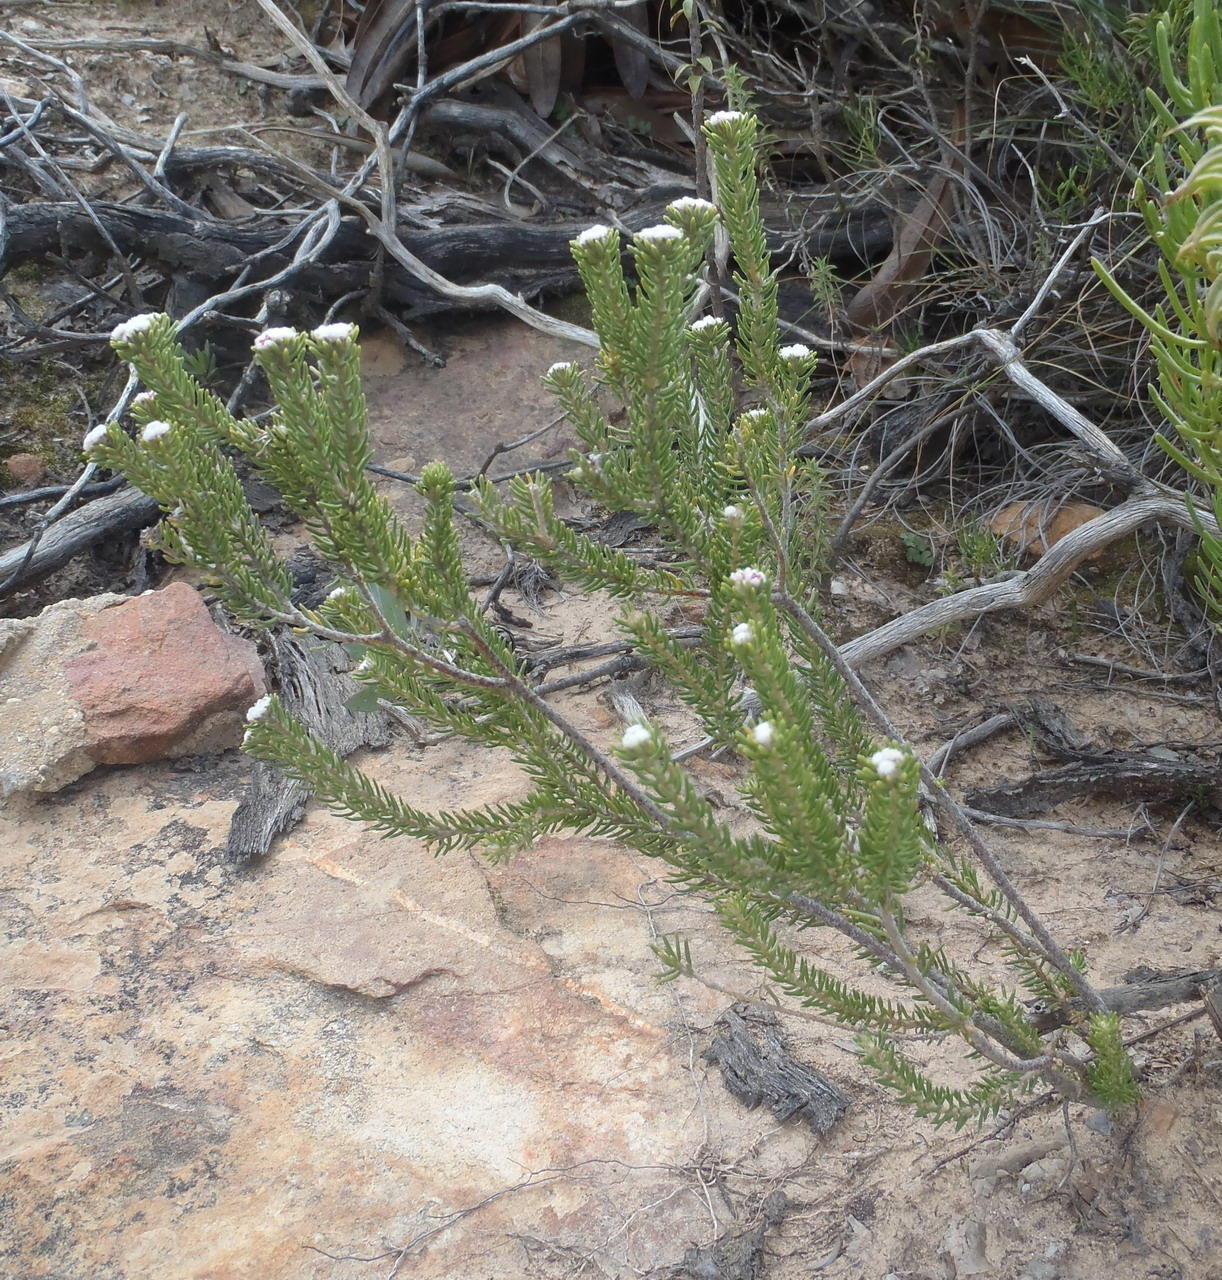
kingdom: Plantae
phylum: Tracheophyta
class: Magnoliopsida
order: Rosales
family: Rhamnaceae
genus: Phylica
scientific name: Phylica karroica
